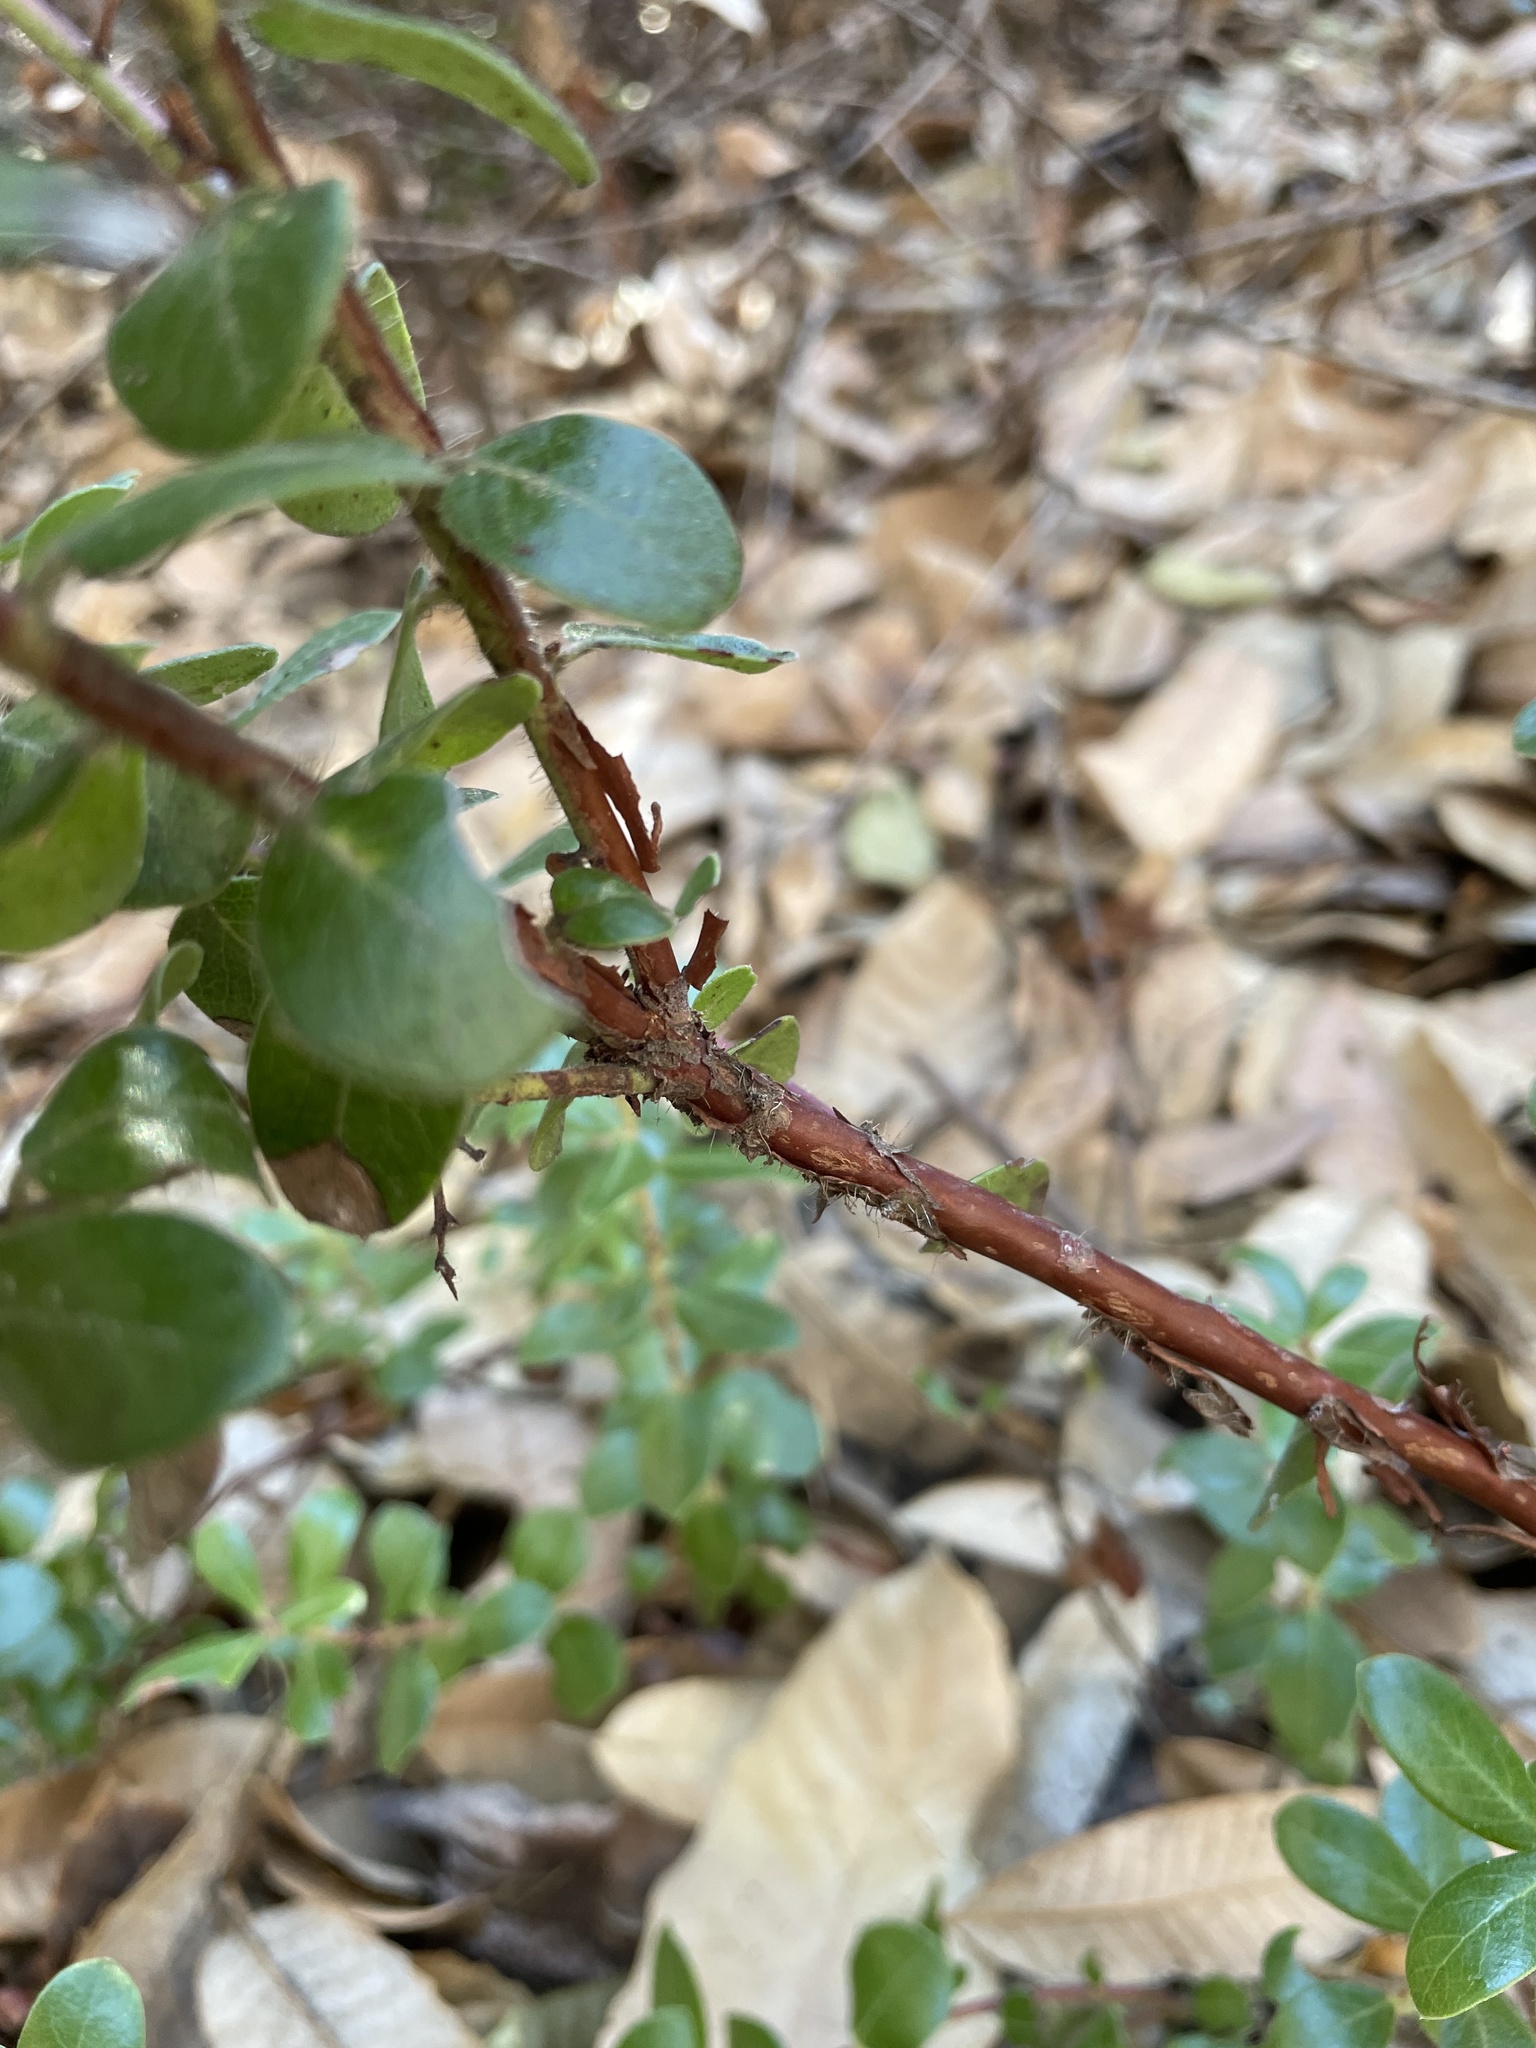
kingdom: Plantae
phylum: Tracheophyta
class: Magnoliopsida
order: Ericales
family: Ericaceae
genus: Arctostaphylos
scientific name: Arctostaphylos nummularia
